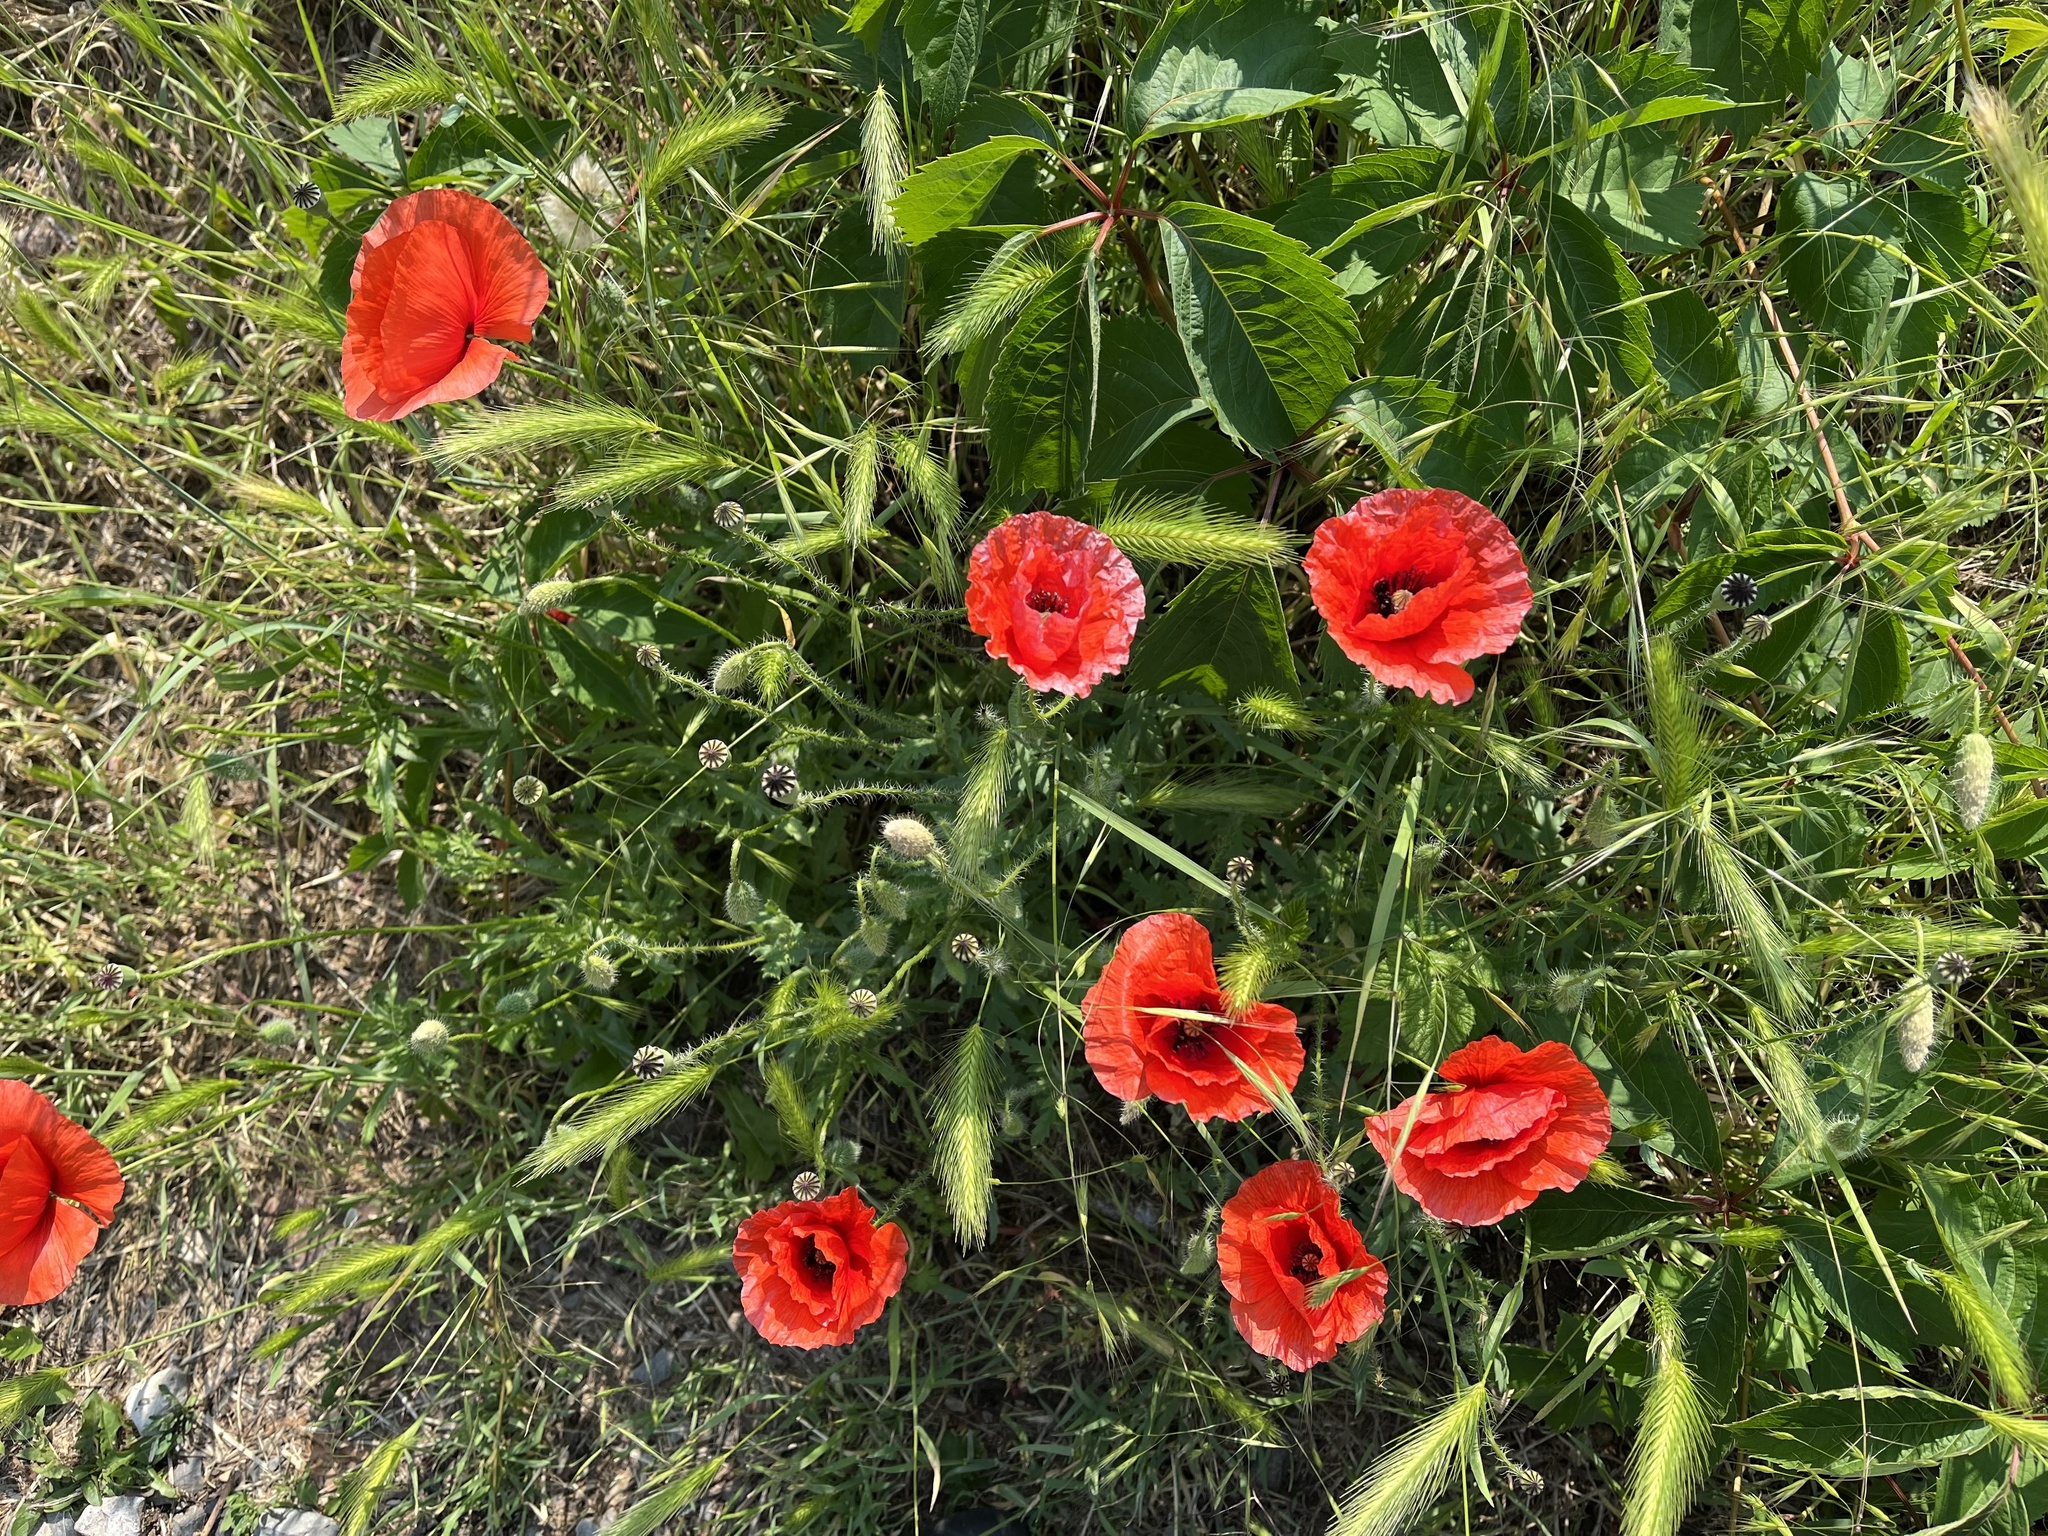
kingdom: Plantae
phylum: Tracheophyta
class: Magnoliopsida
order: Ranunculales
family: Papaveraceae
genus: Papaver
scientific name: Papaver rhoeas
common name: Corn poppy
